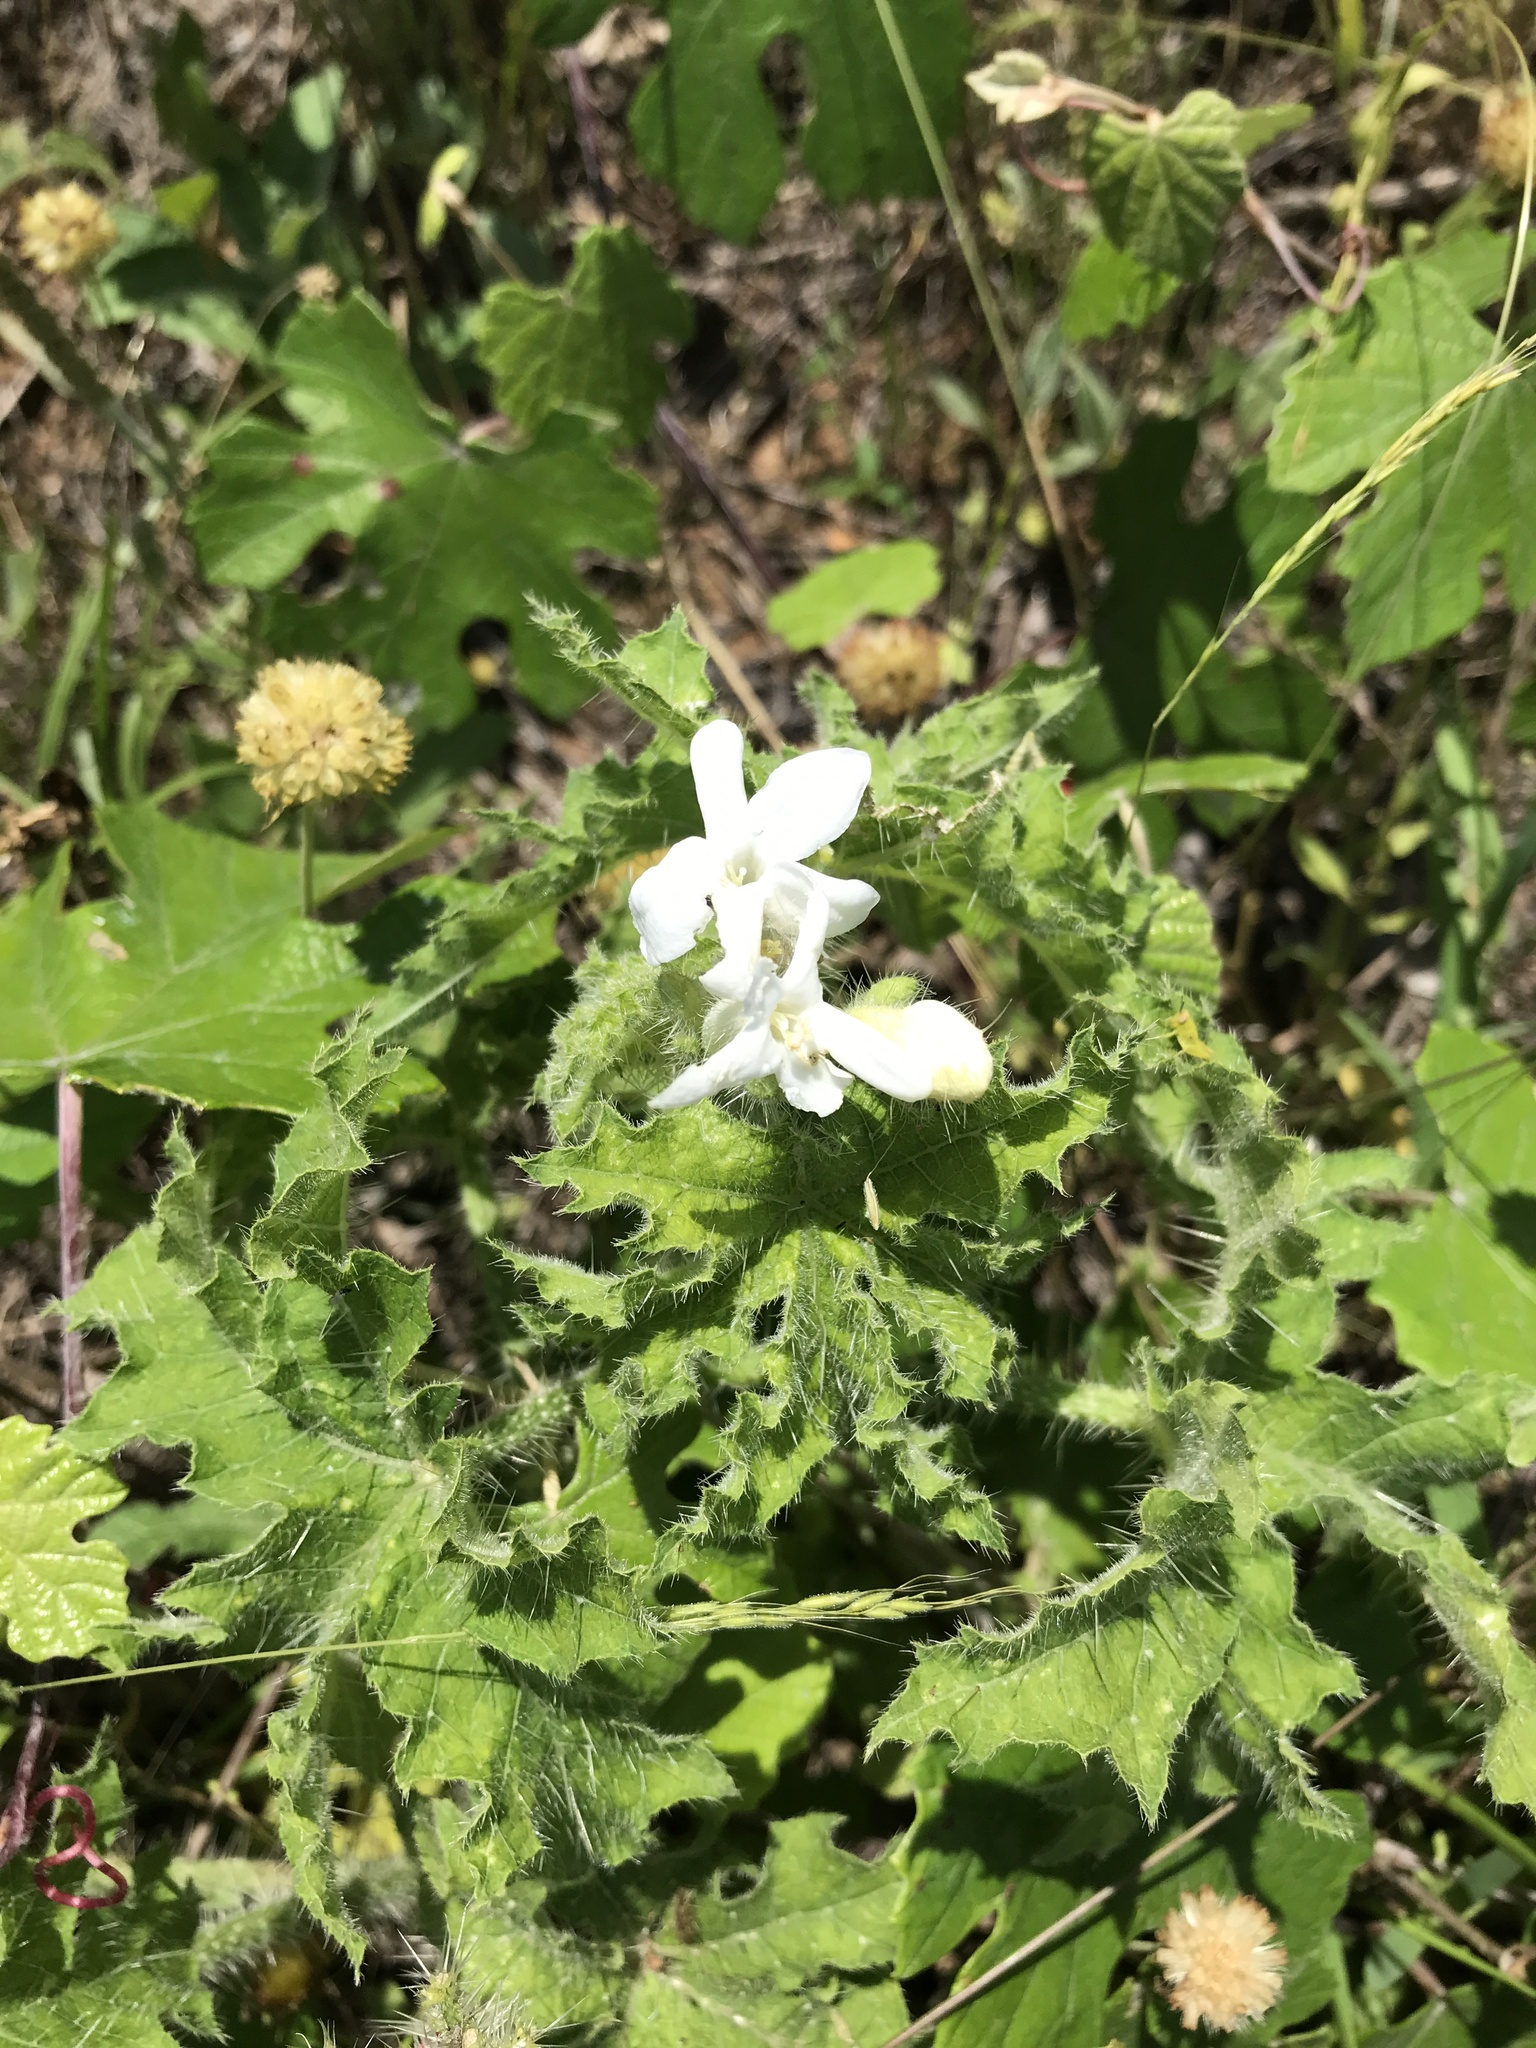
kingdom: Plantae
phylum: Tracheophyta
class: Magnoliopsida
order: Malpighiales
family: Euphorbiaceae
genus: Cnidoscolus
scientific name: Cnidoscolus texanus
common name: Texas bull-nettle
